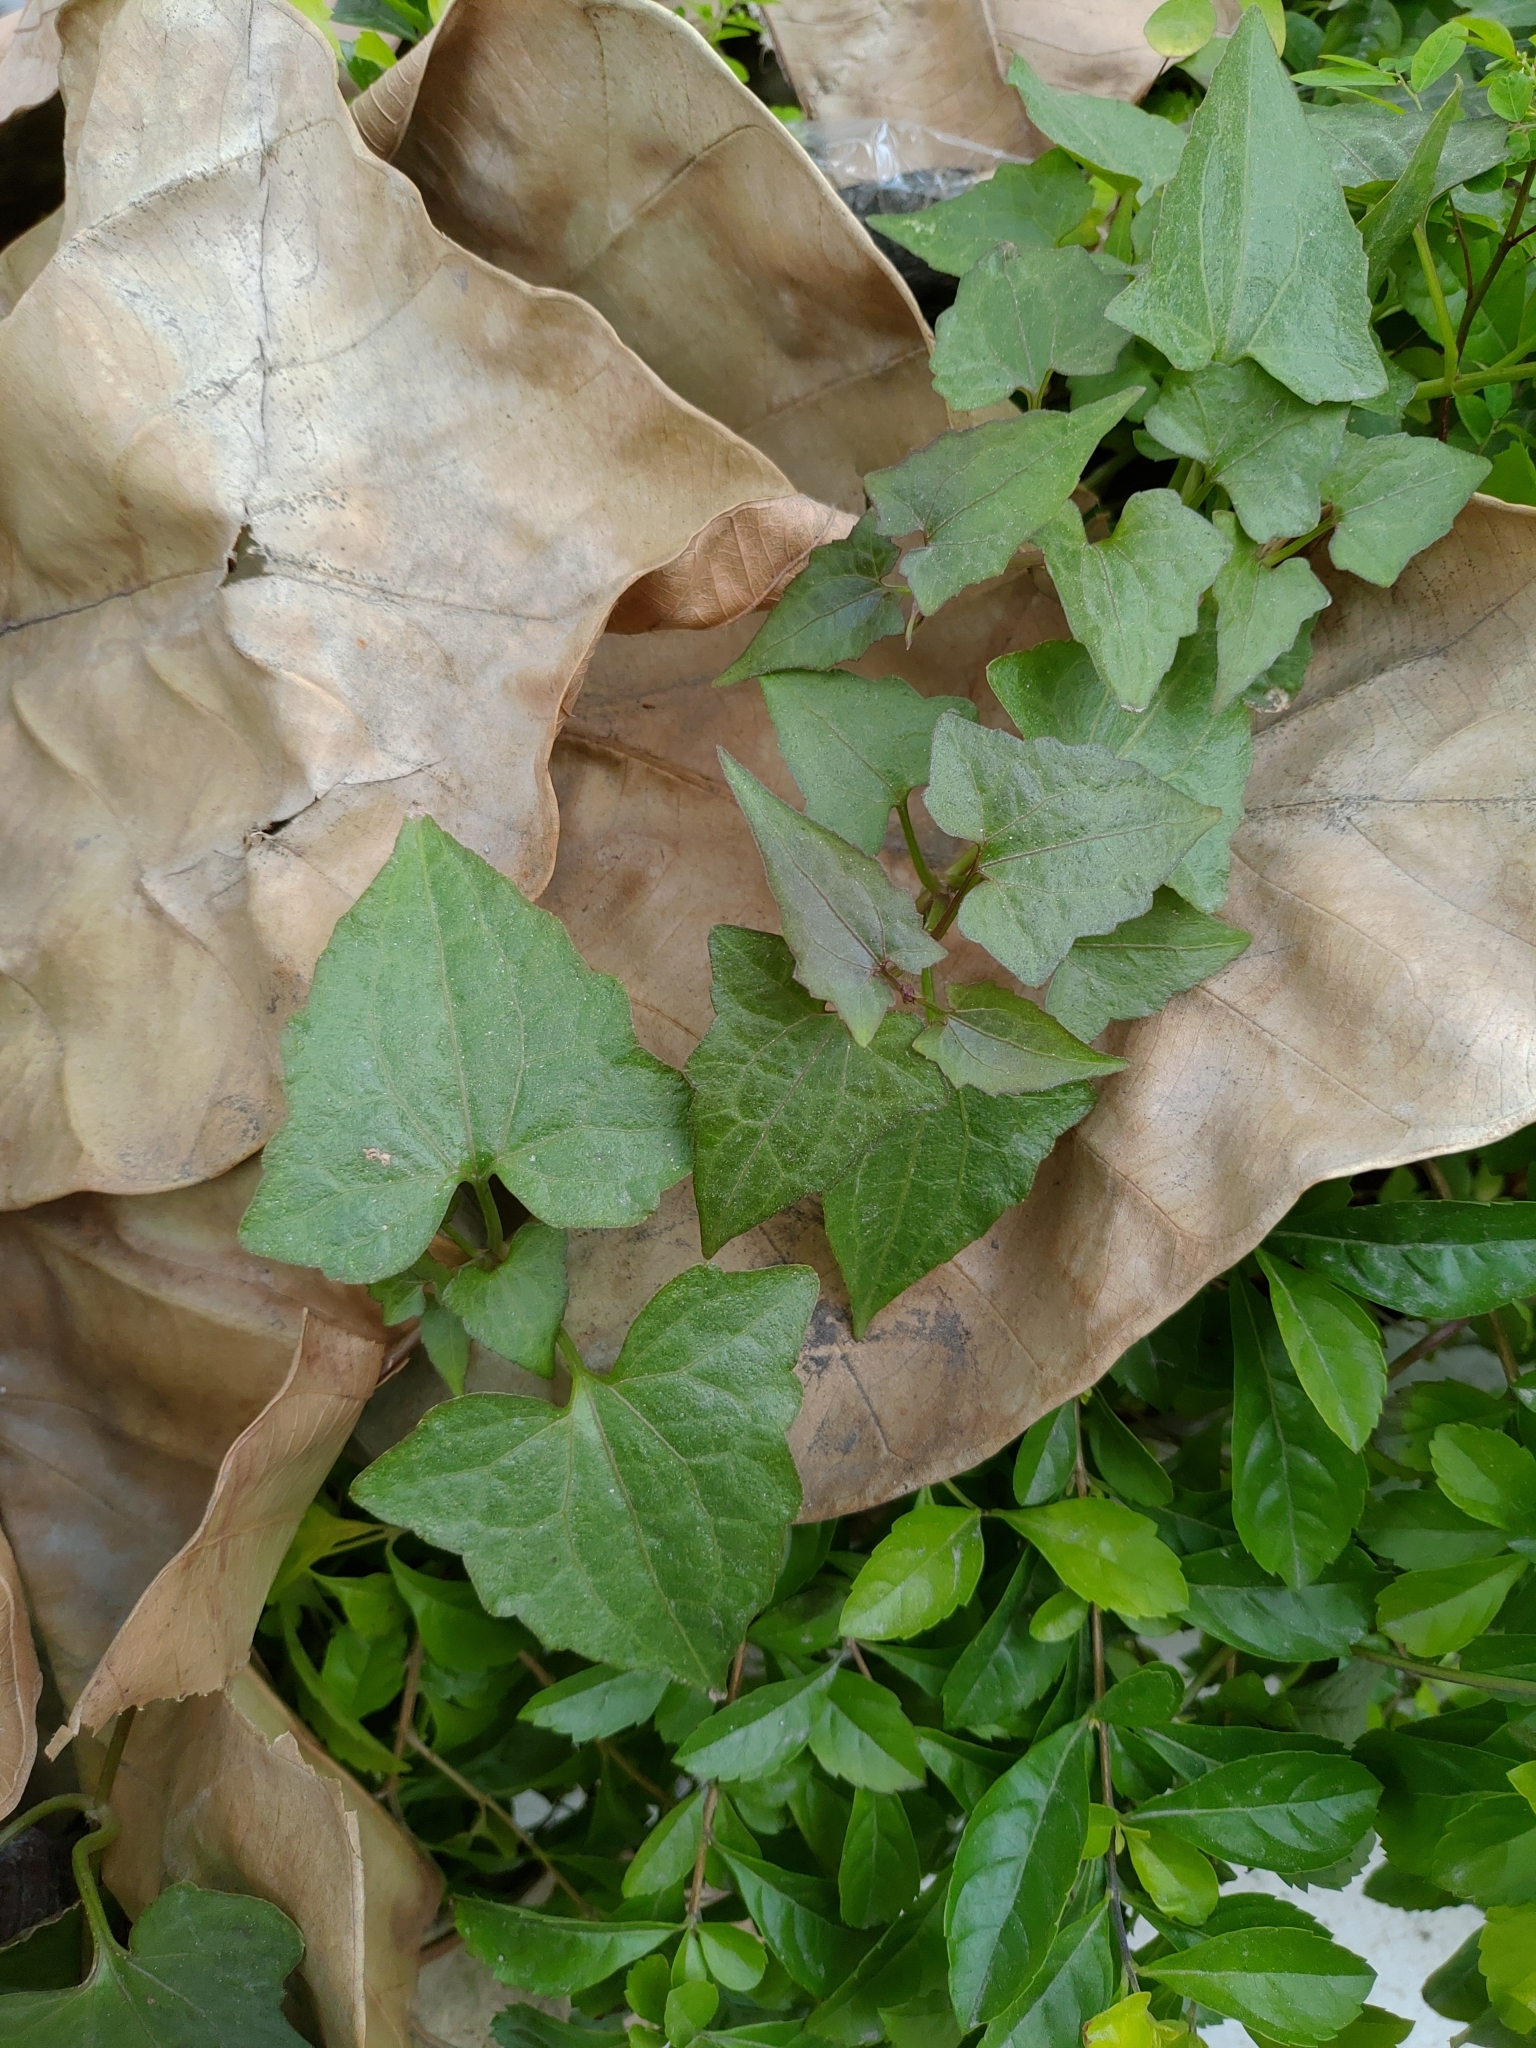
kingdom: Plantae
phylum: Tracheophyta
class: Magnoliopsida
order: Asterales
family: Asteraceae
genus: Mikania
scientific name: Mikania micrantha
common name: Mile-a-minute
